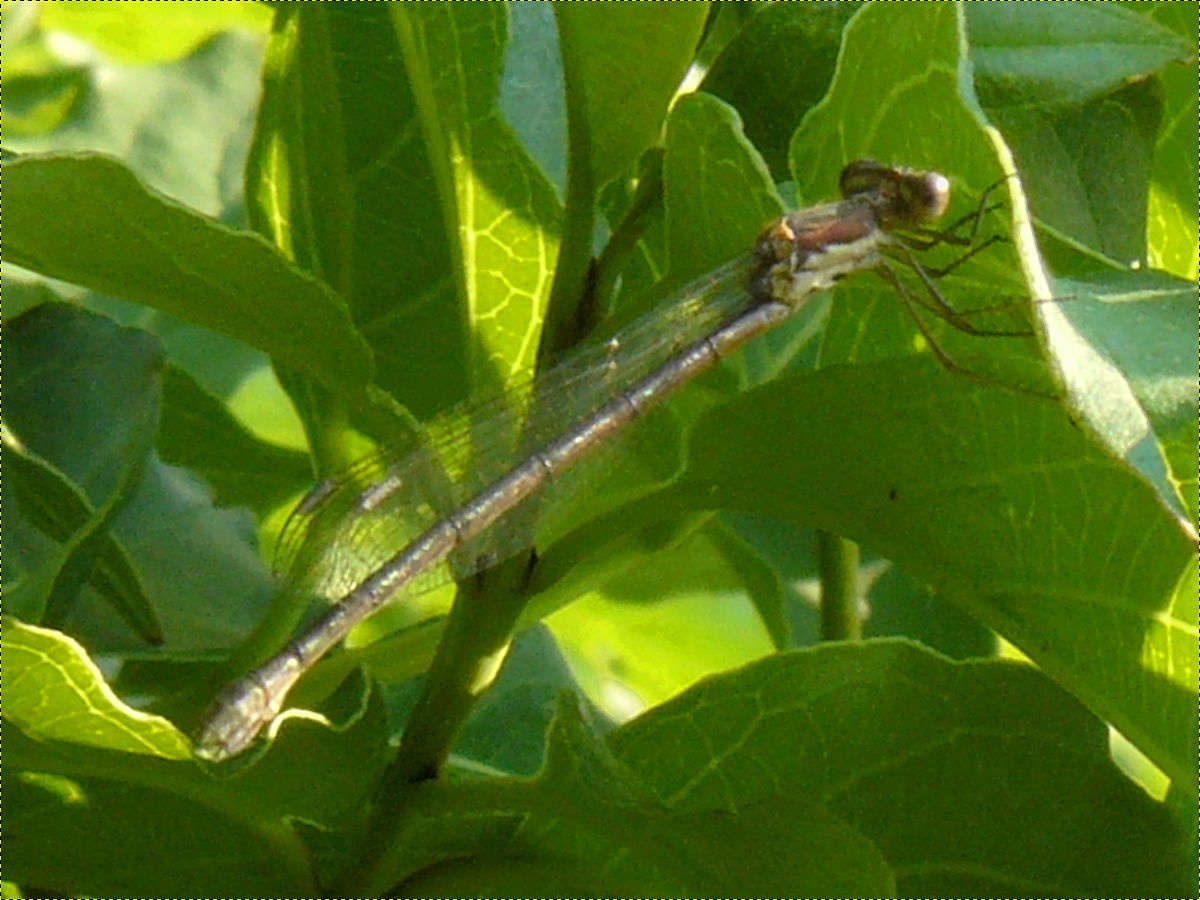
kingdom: Animalia
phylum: Arthropoda
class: Insecta
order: Odonata
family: Lestidae
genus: Lestes
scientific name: Lestes congener
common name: Spotted spreadwing
